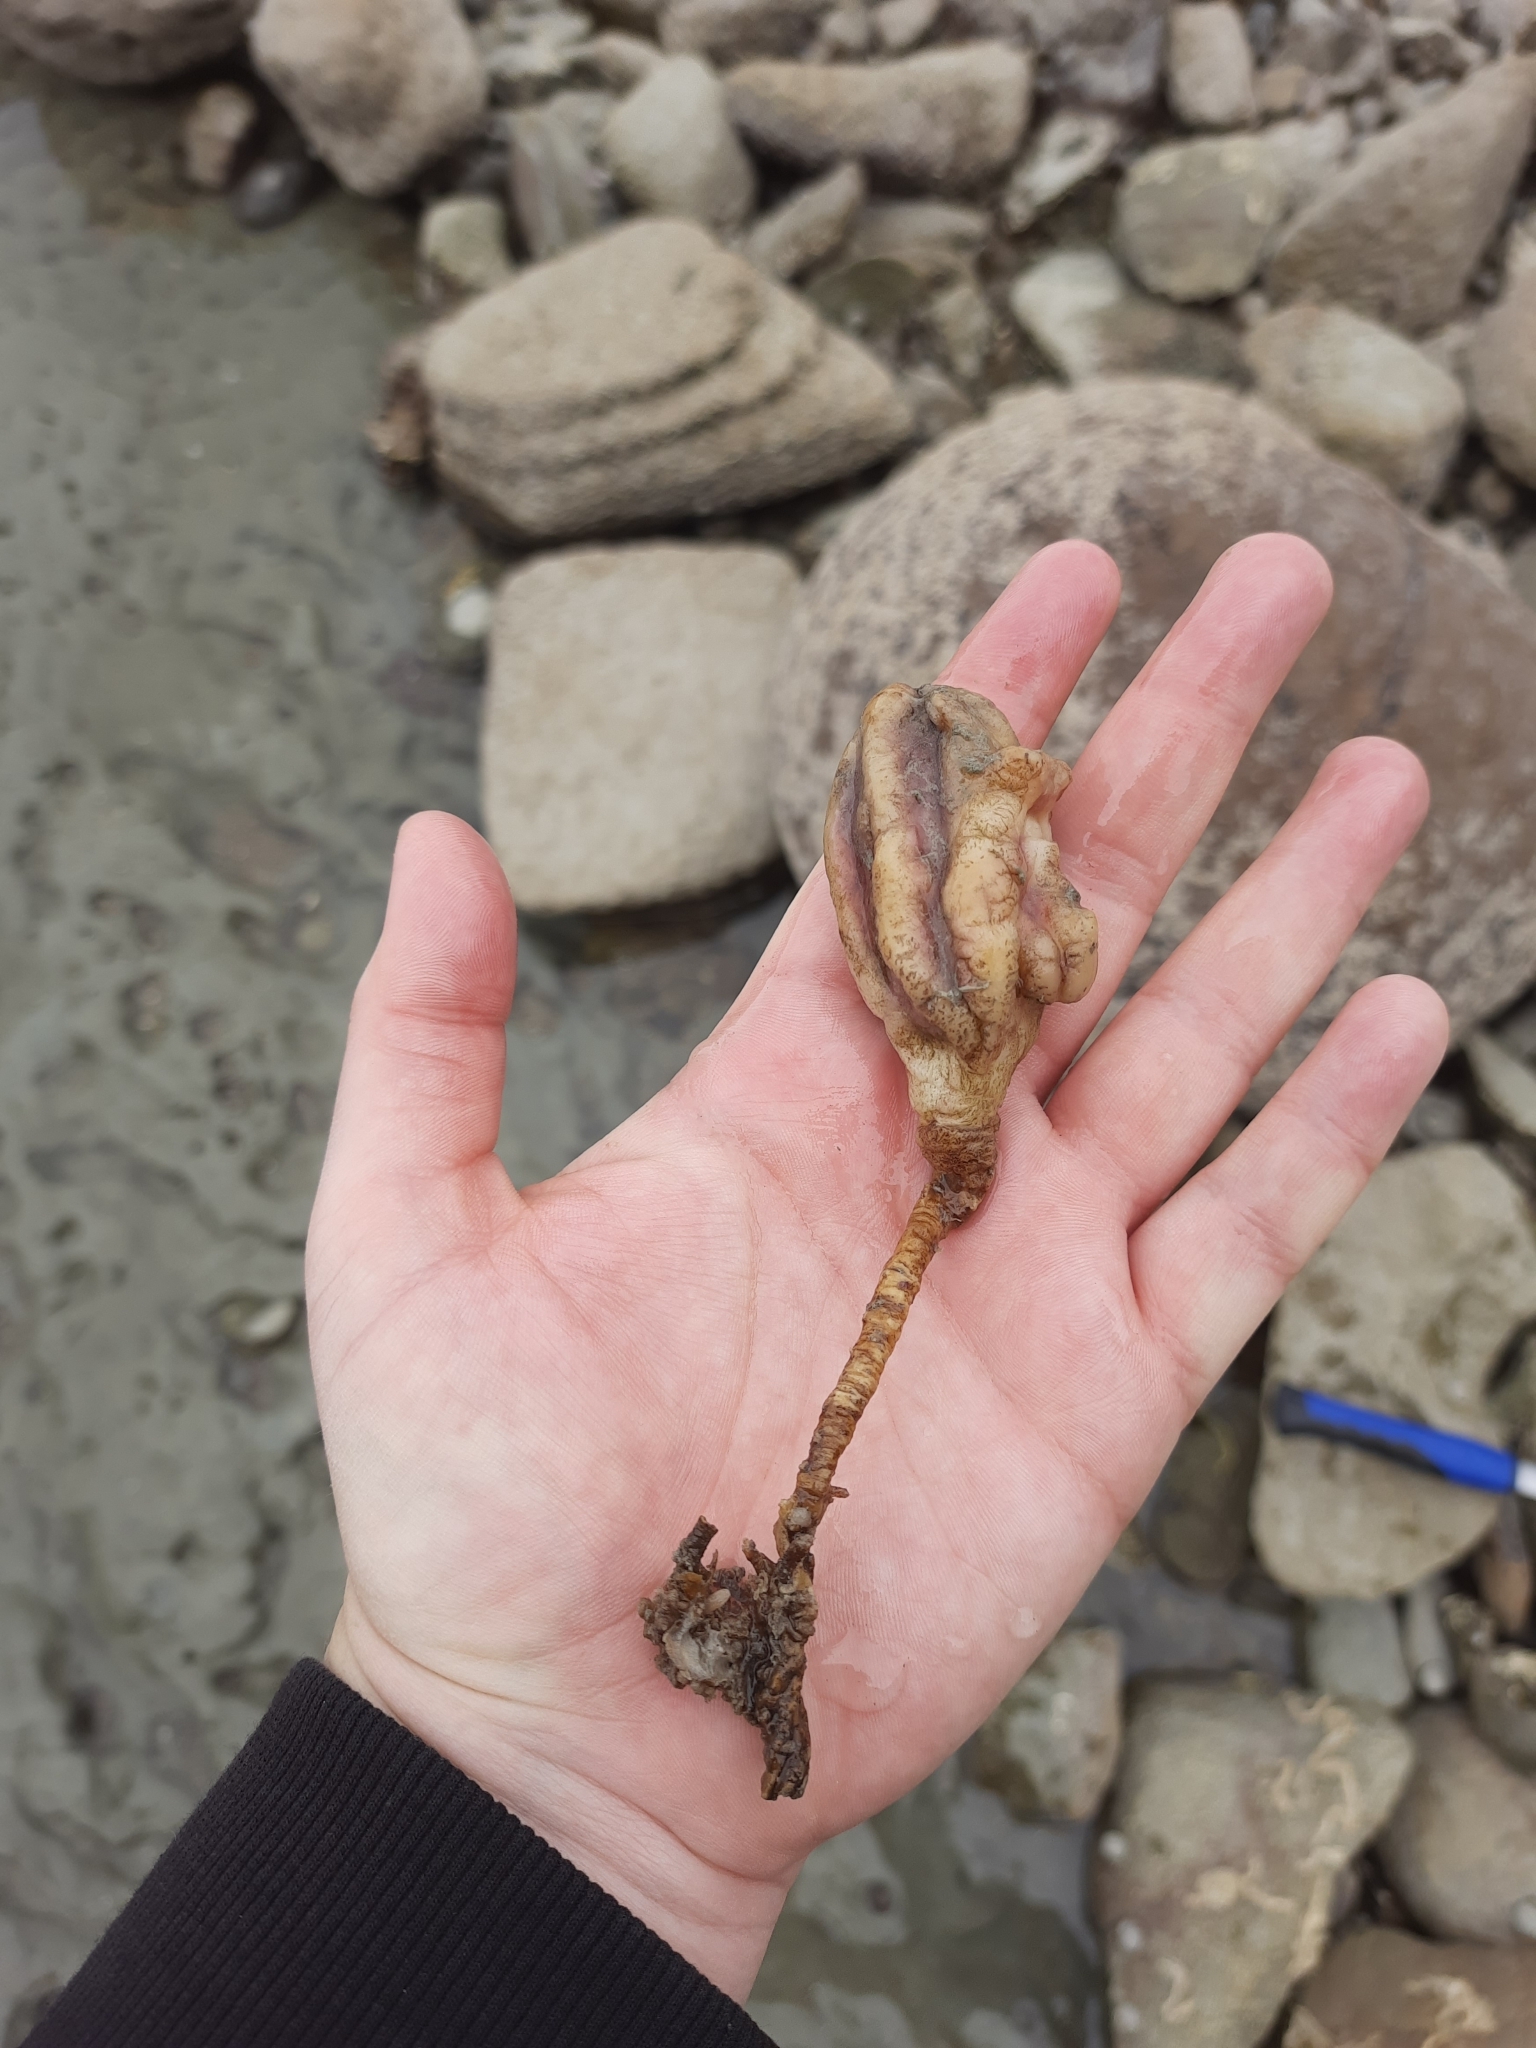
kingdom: Animalia
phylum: Chordata
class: Ascidiacea
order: Stolidobranchia
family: Pyuridae
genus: Pyura
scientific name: Pyura pachydermatina
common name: Sea tulip
